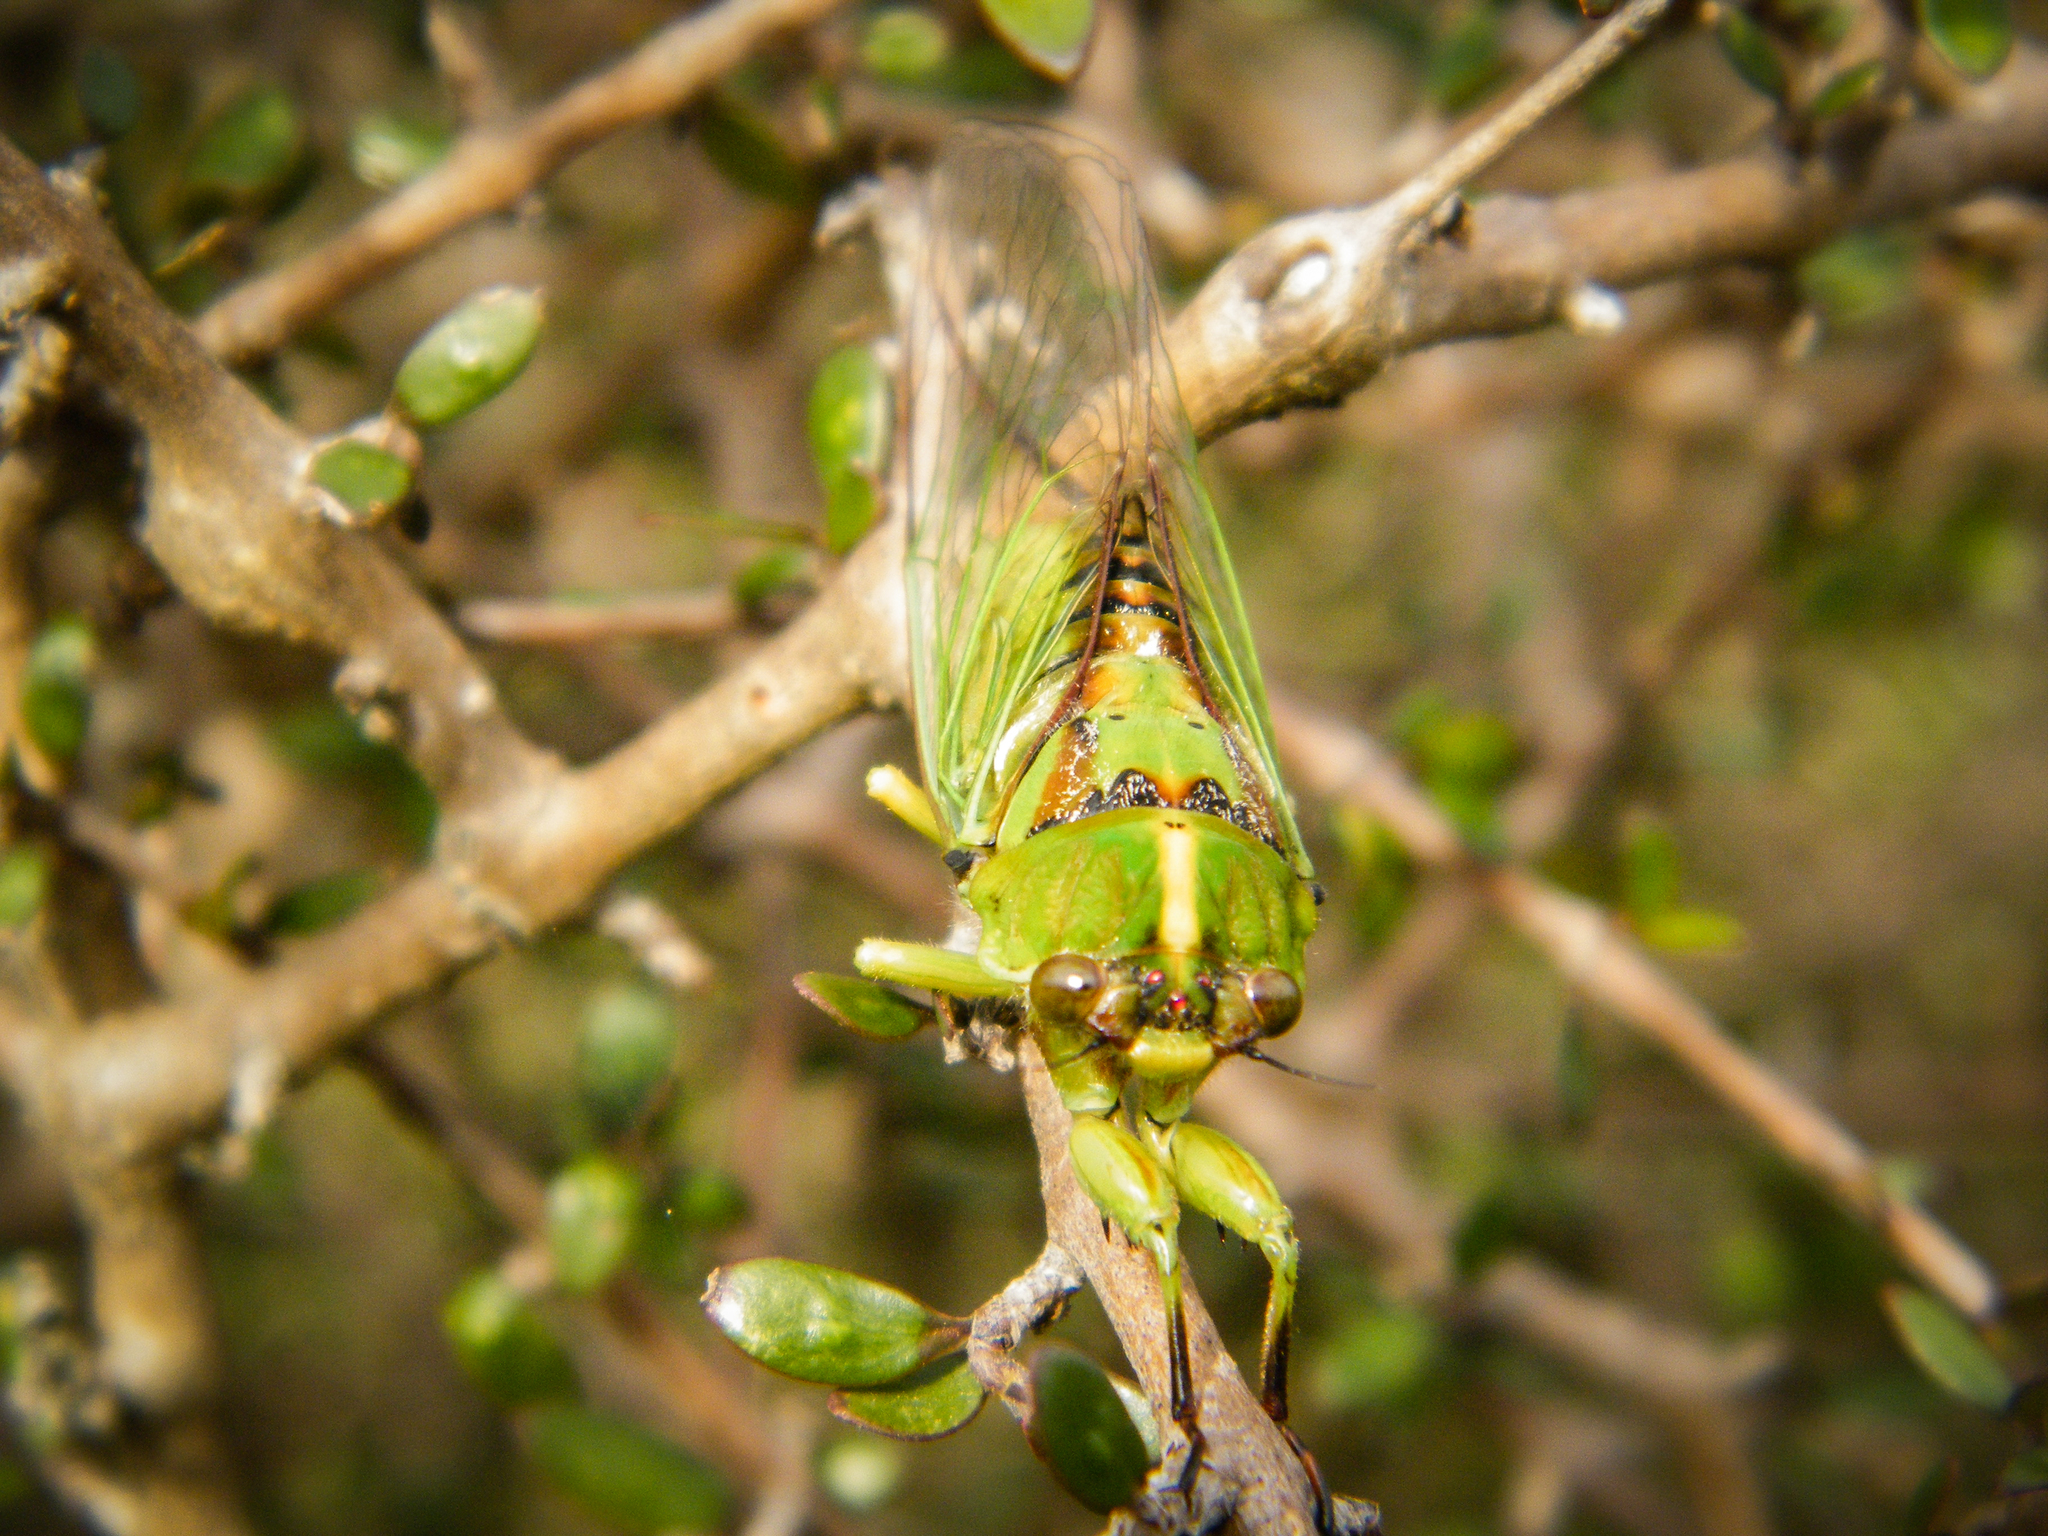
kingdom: Animalia
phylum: Arthropoda
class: Insecta
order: Hemiptera
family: Cicadidae
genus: Kikihia
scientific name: Kikihia subalpina
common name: Chathams cicada
